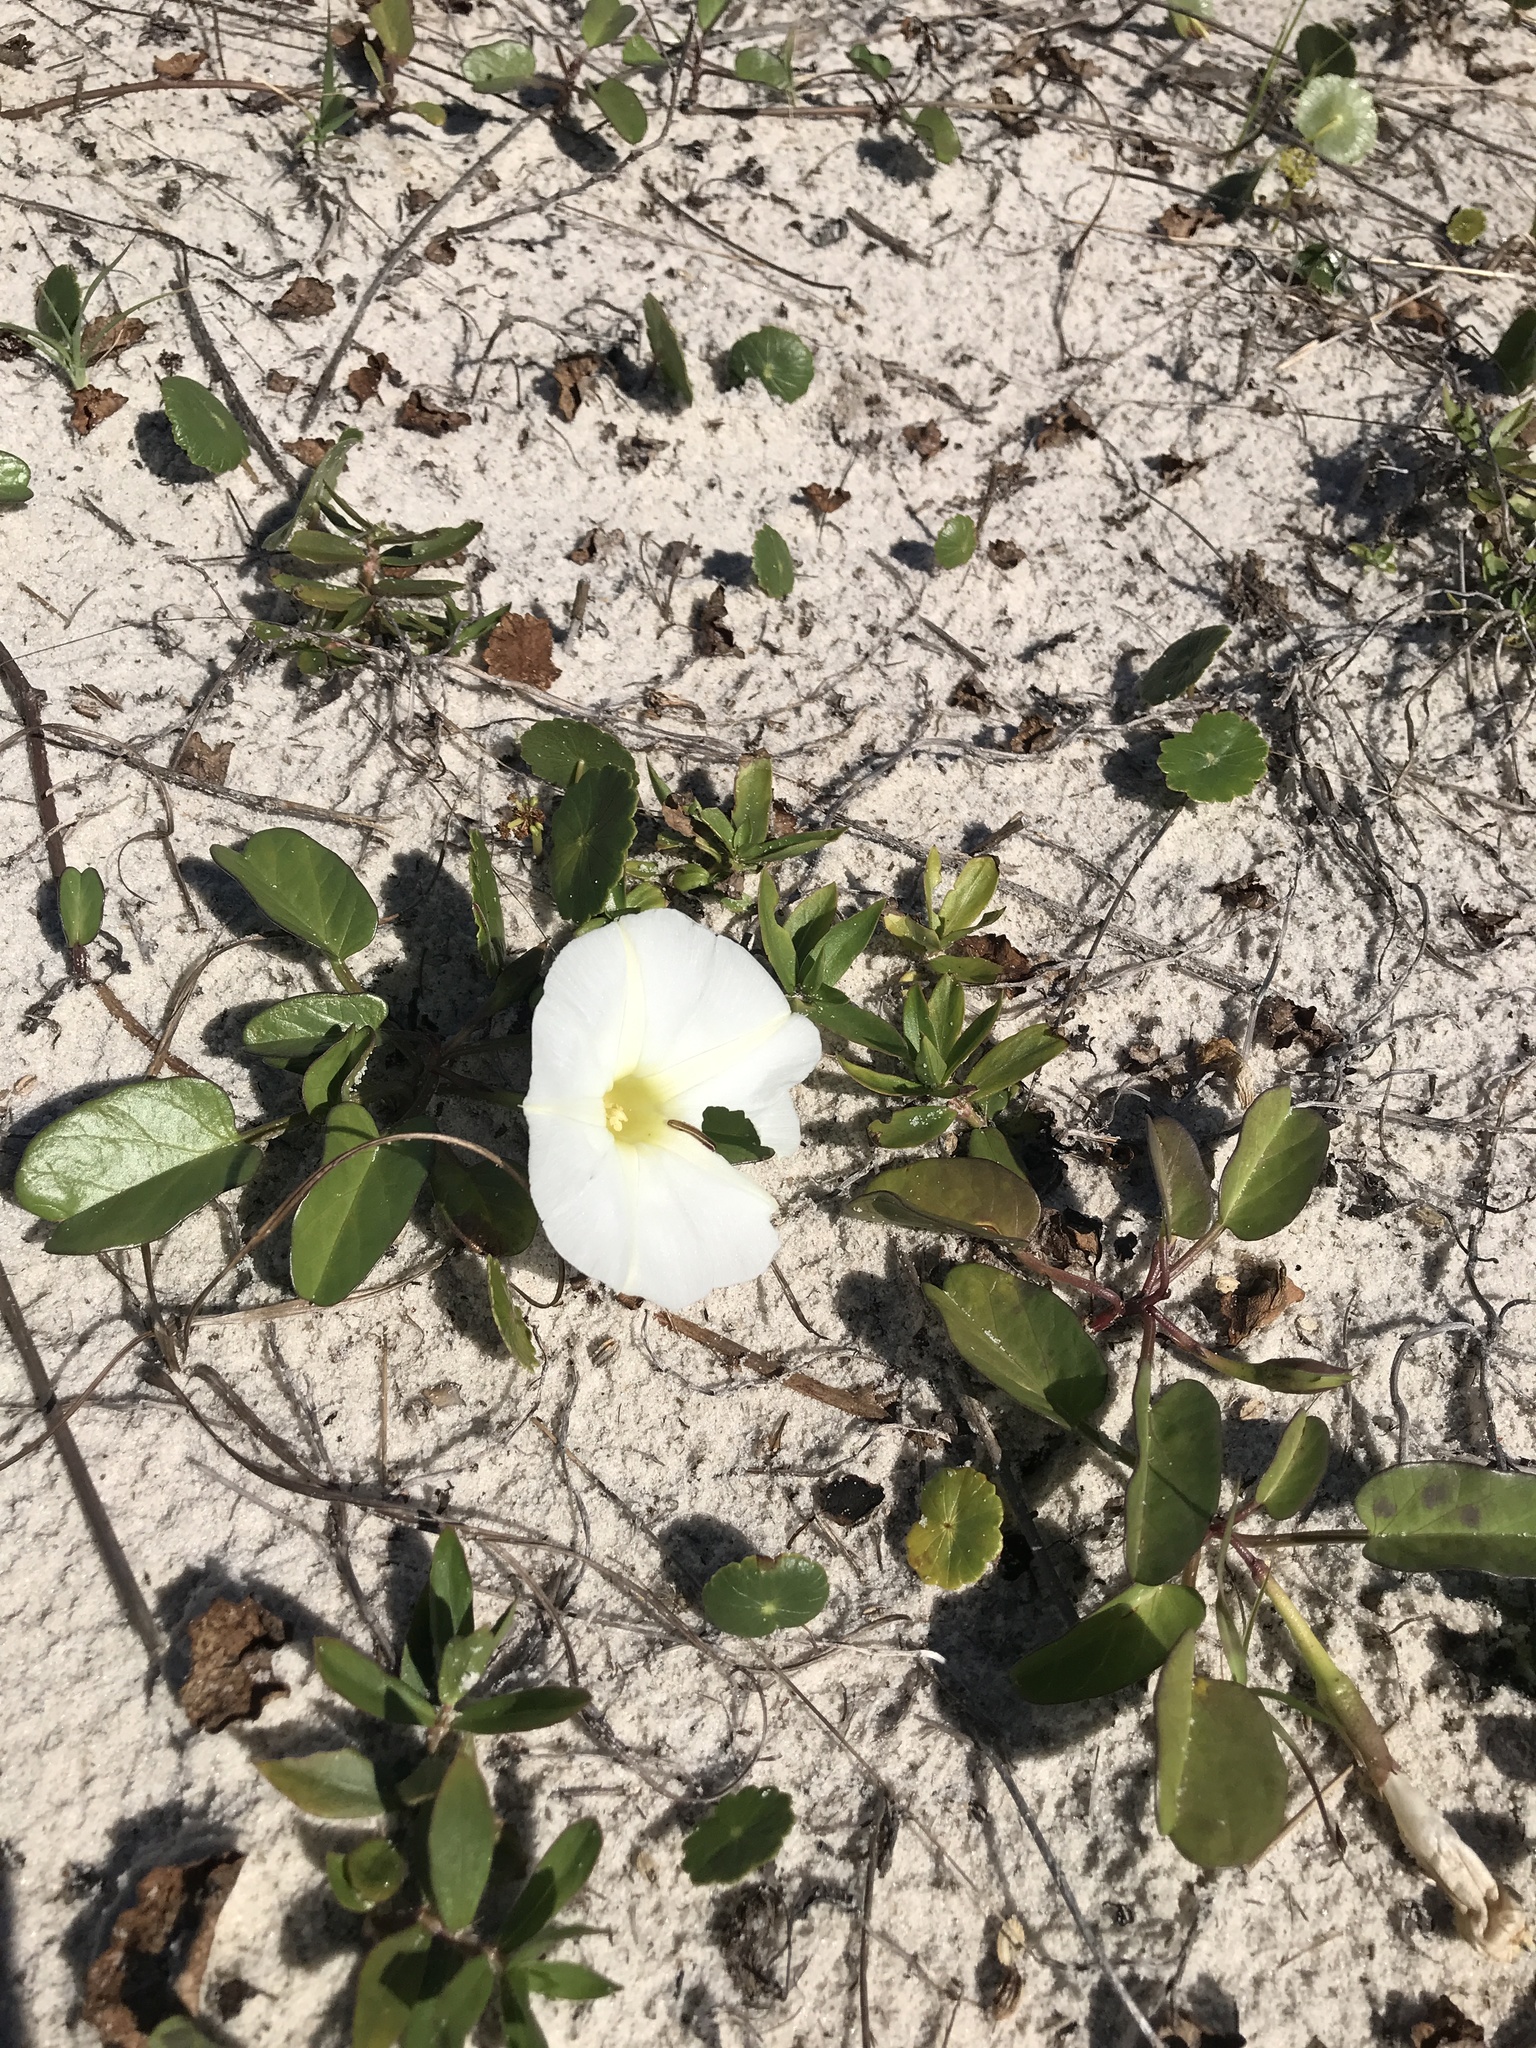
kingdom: Plantae
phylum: Tracheophyta
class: Magnoliopsida
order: Solanales
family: Convolvulaceae
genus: Ipomoea
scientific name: Ipomoea imperati
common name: Fiddle-leaf morning-glory
